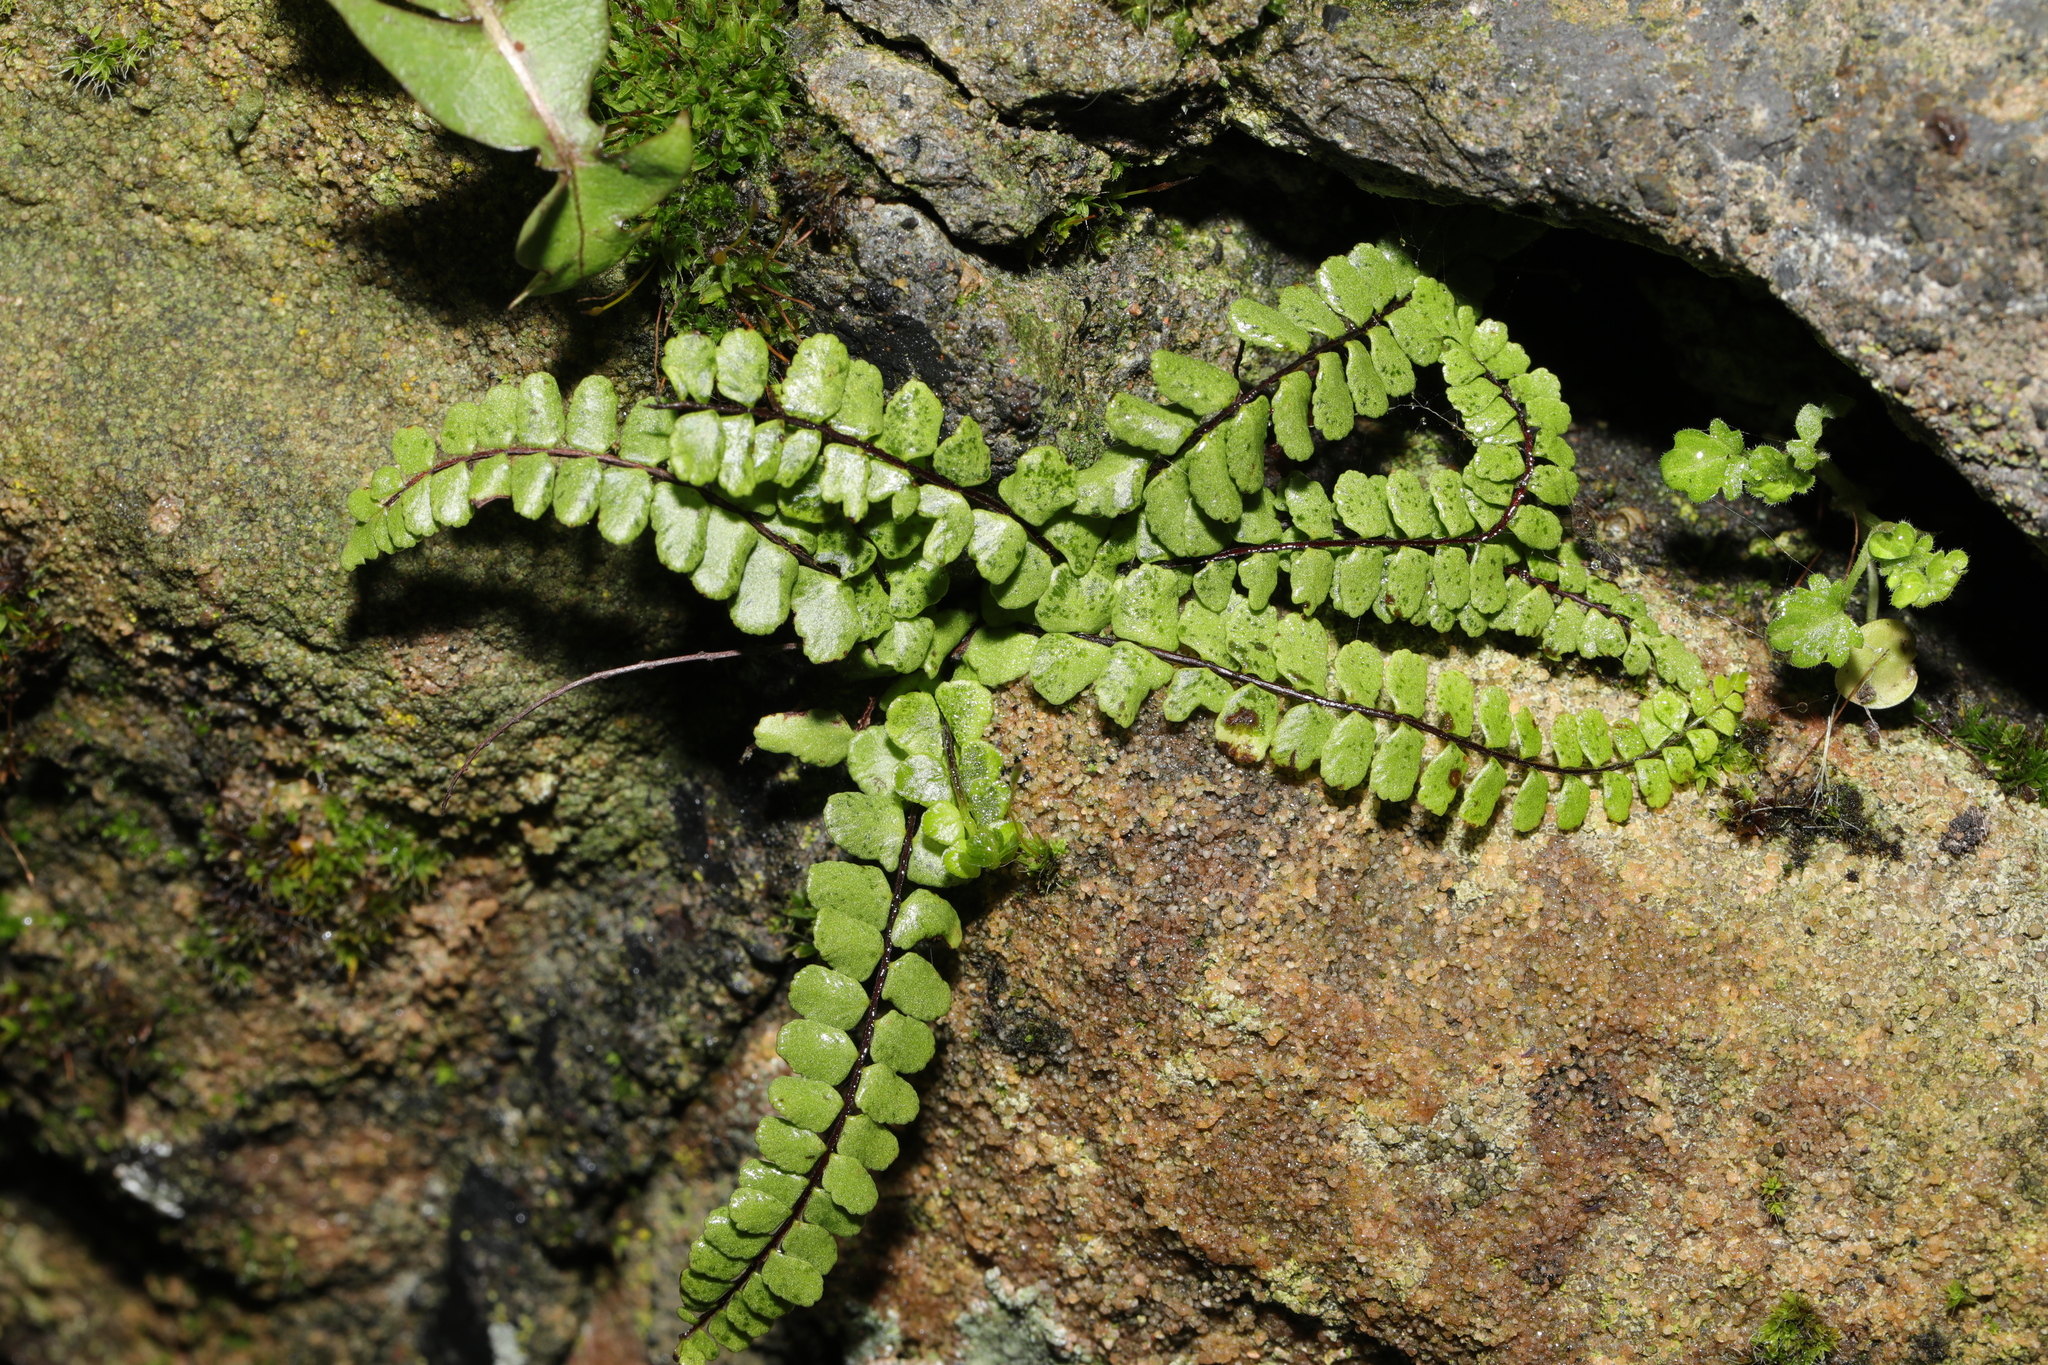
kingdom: Plantae
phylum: Tracheophyta
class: Polypodiopsida
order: Polypodiales
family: Aspleniaceae
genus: Asplenium
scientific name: Asplenium trichomanes
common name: Maidenhair spleenwort
